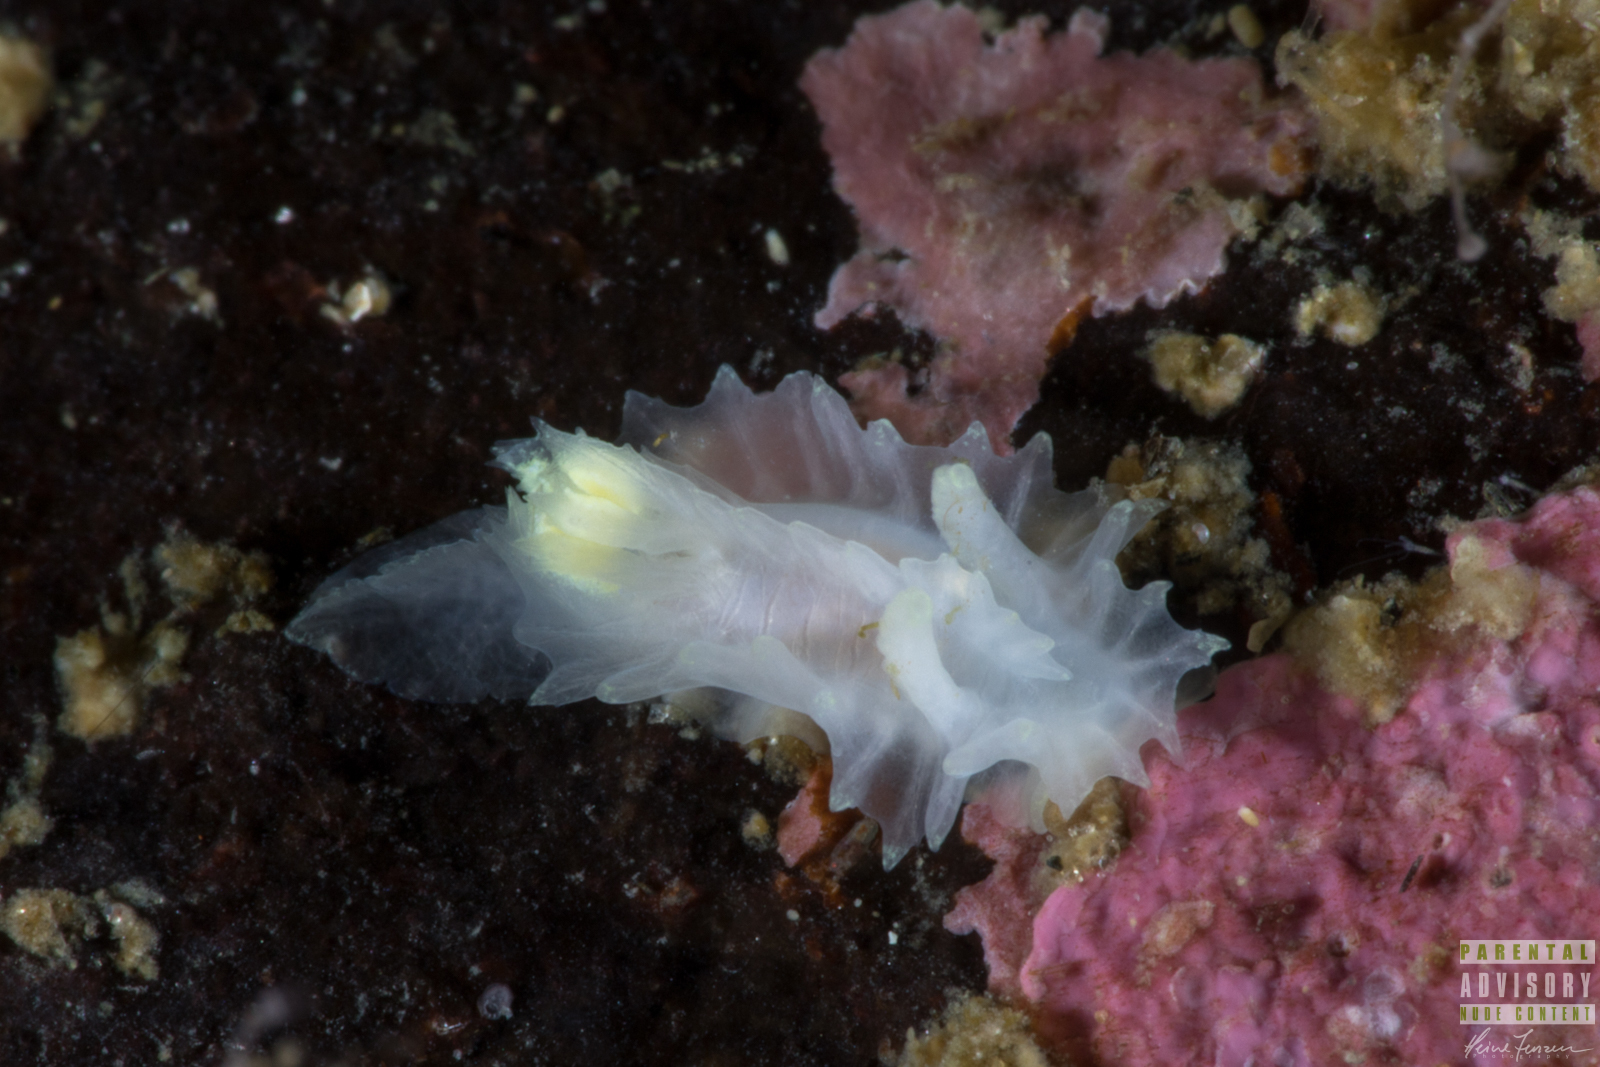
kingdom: Animalia
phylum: Mollusca
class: Gastropoda
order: Nudibranchia
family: Goniodorididae
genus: Lophodoris
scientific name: Lophodoris danielsseni
